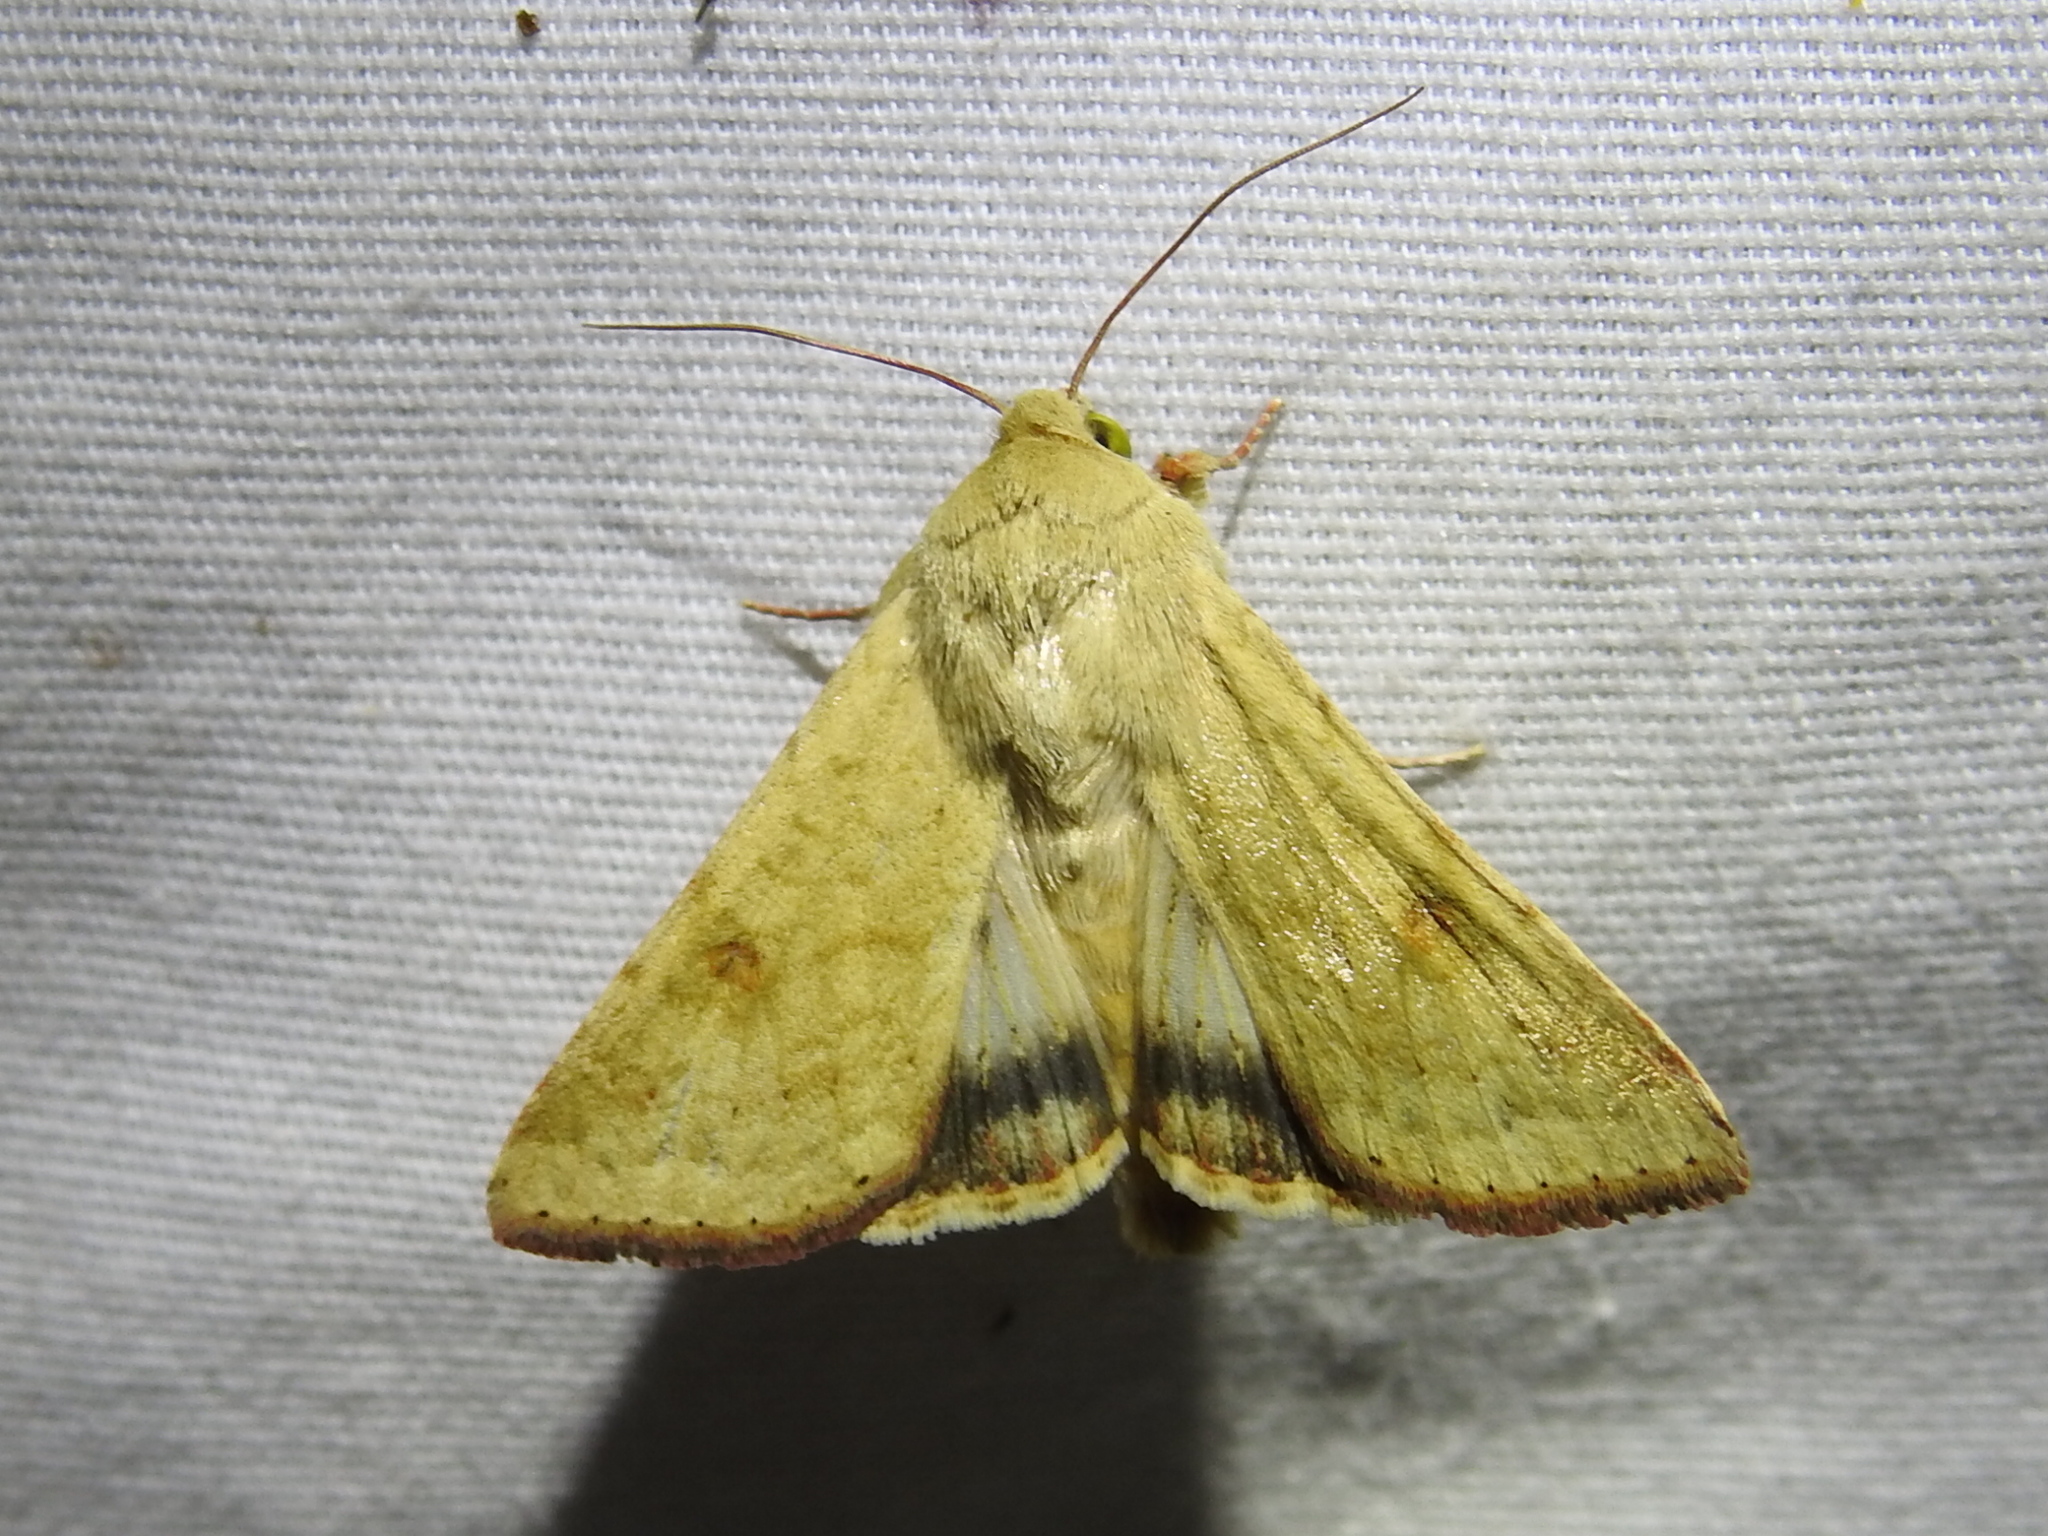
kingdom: Animalia
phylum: Arthropoda
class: Insecta
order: Lepidoptera
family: Noctuidae
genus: Helicoverpa
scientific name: Helicoverpa zea
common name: Bollworm
